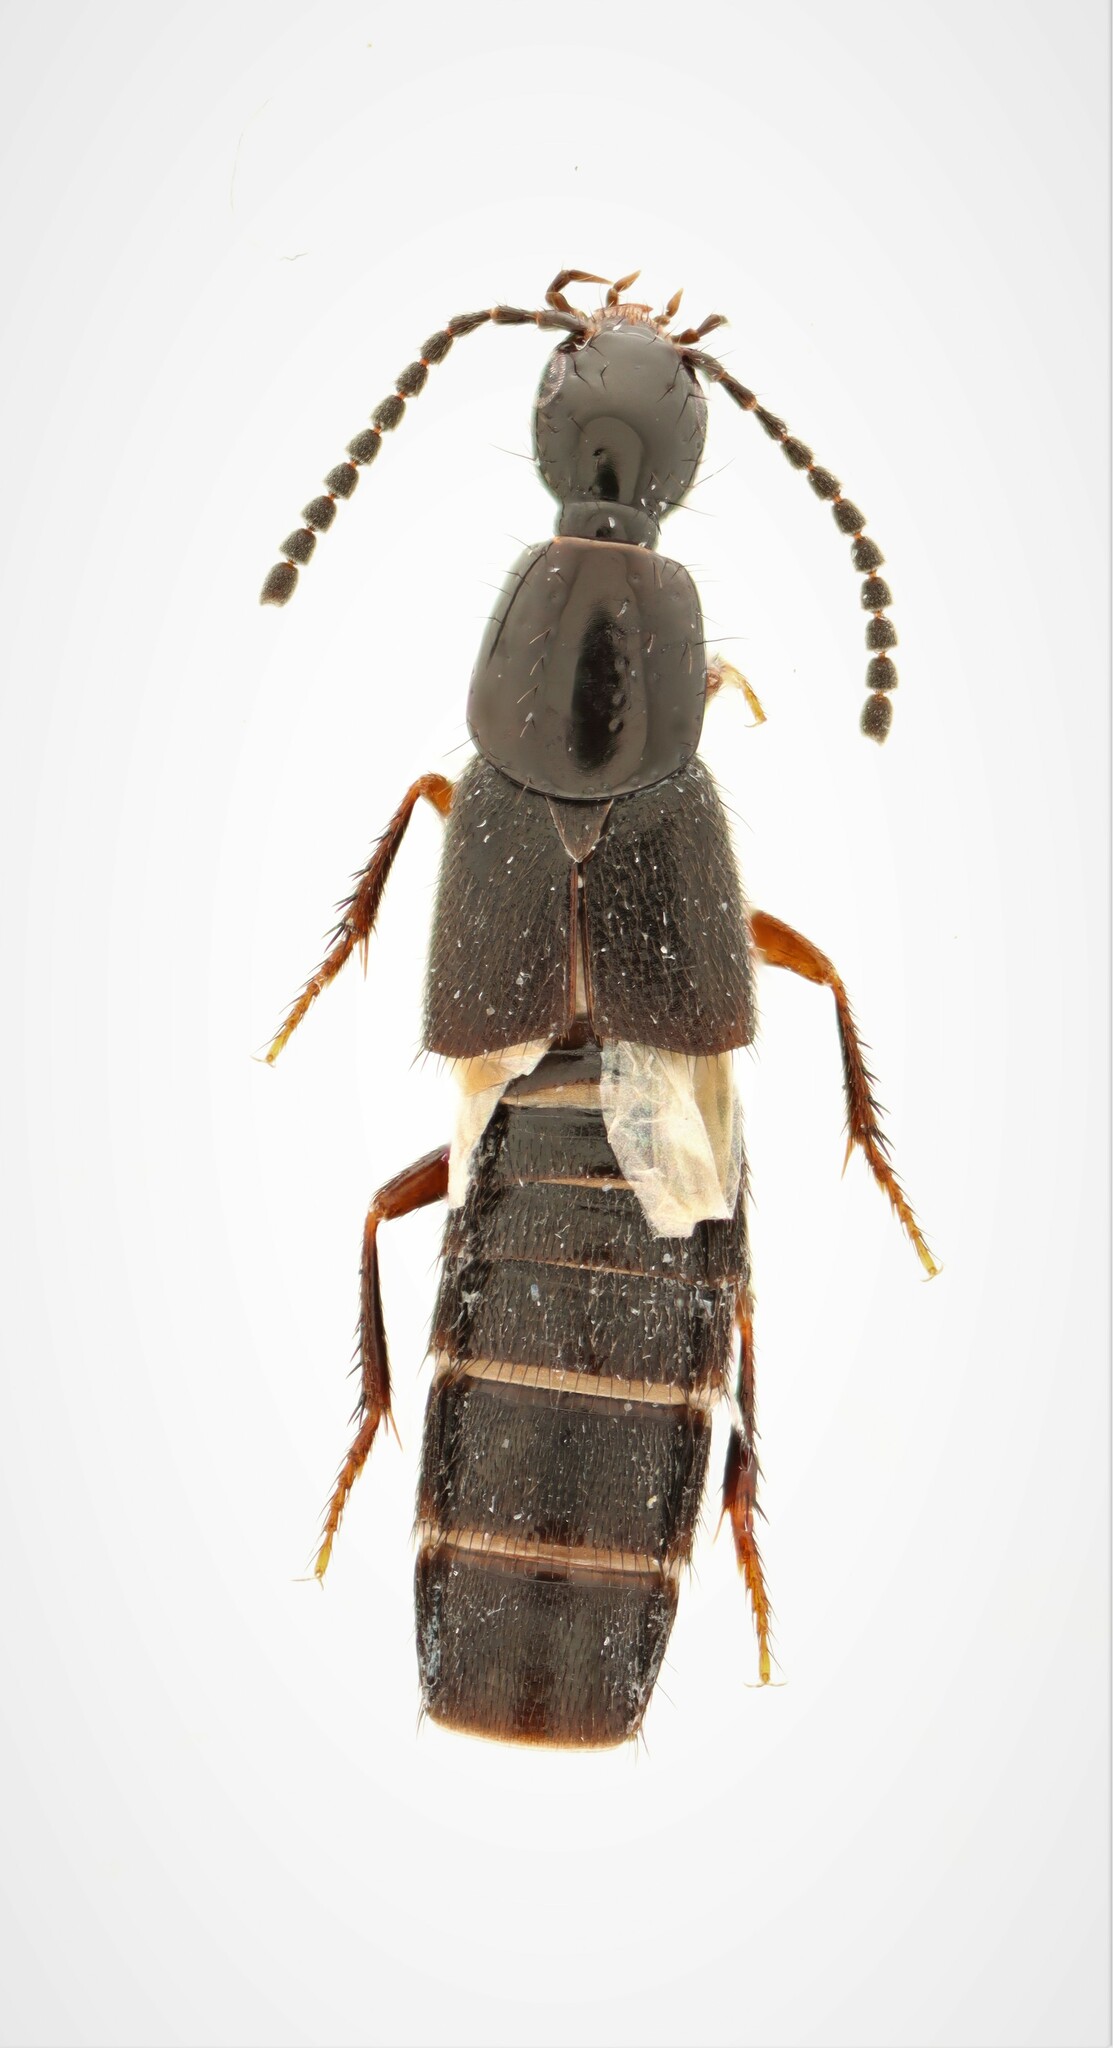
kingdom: Animalia
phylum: Arthropoda
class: Insecta
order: Coleoptera
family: Staphylinidae
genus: Philonthus
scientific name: Philonthus janus
